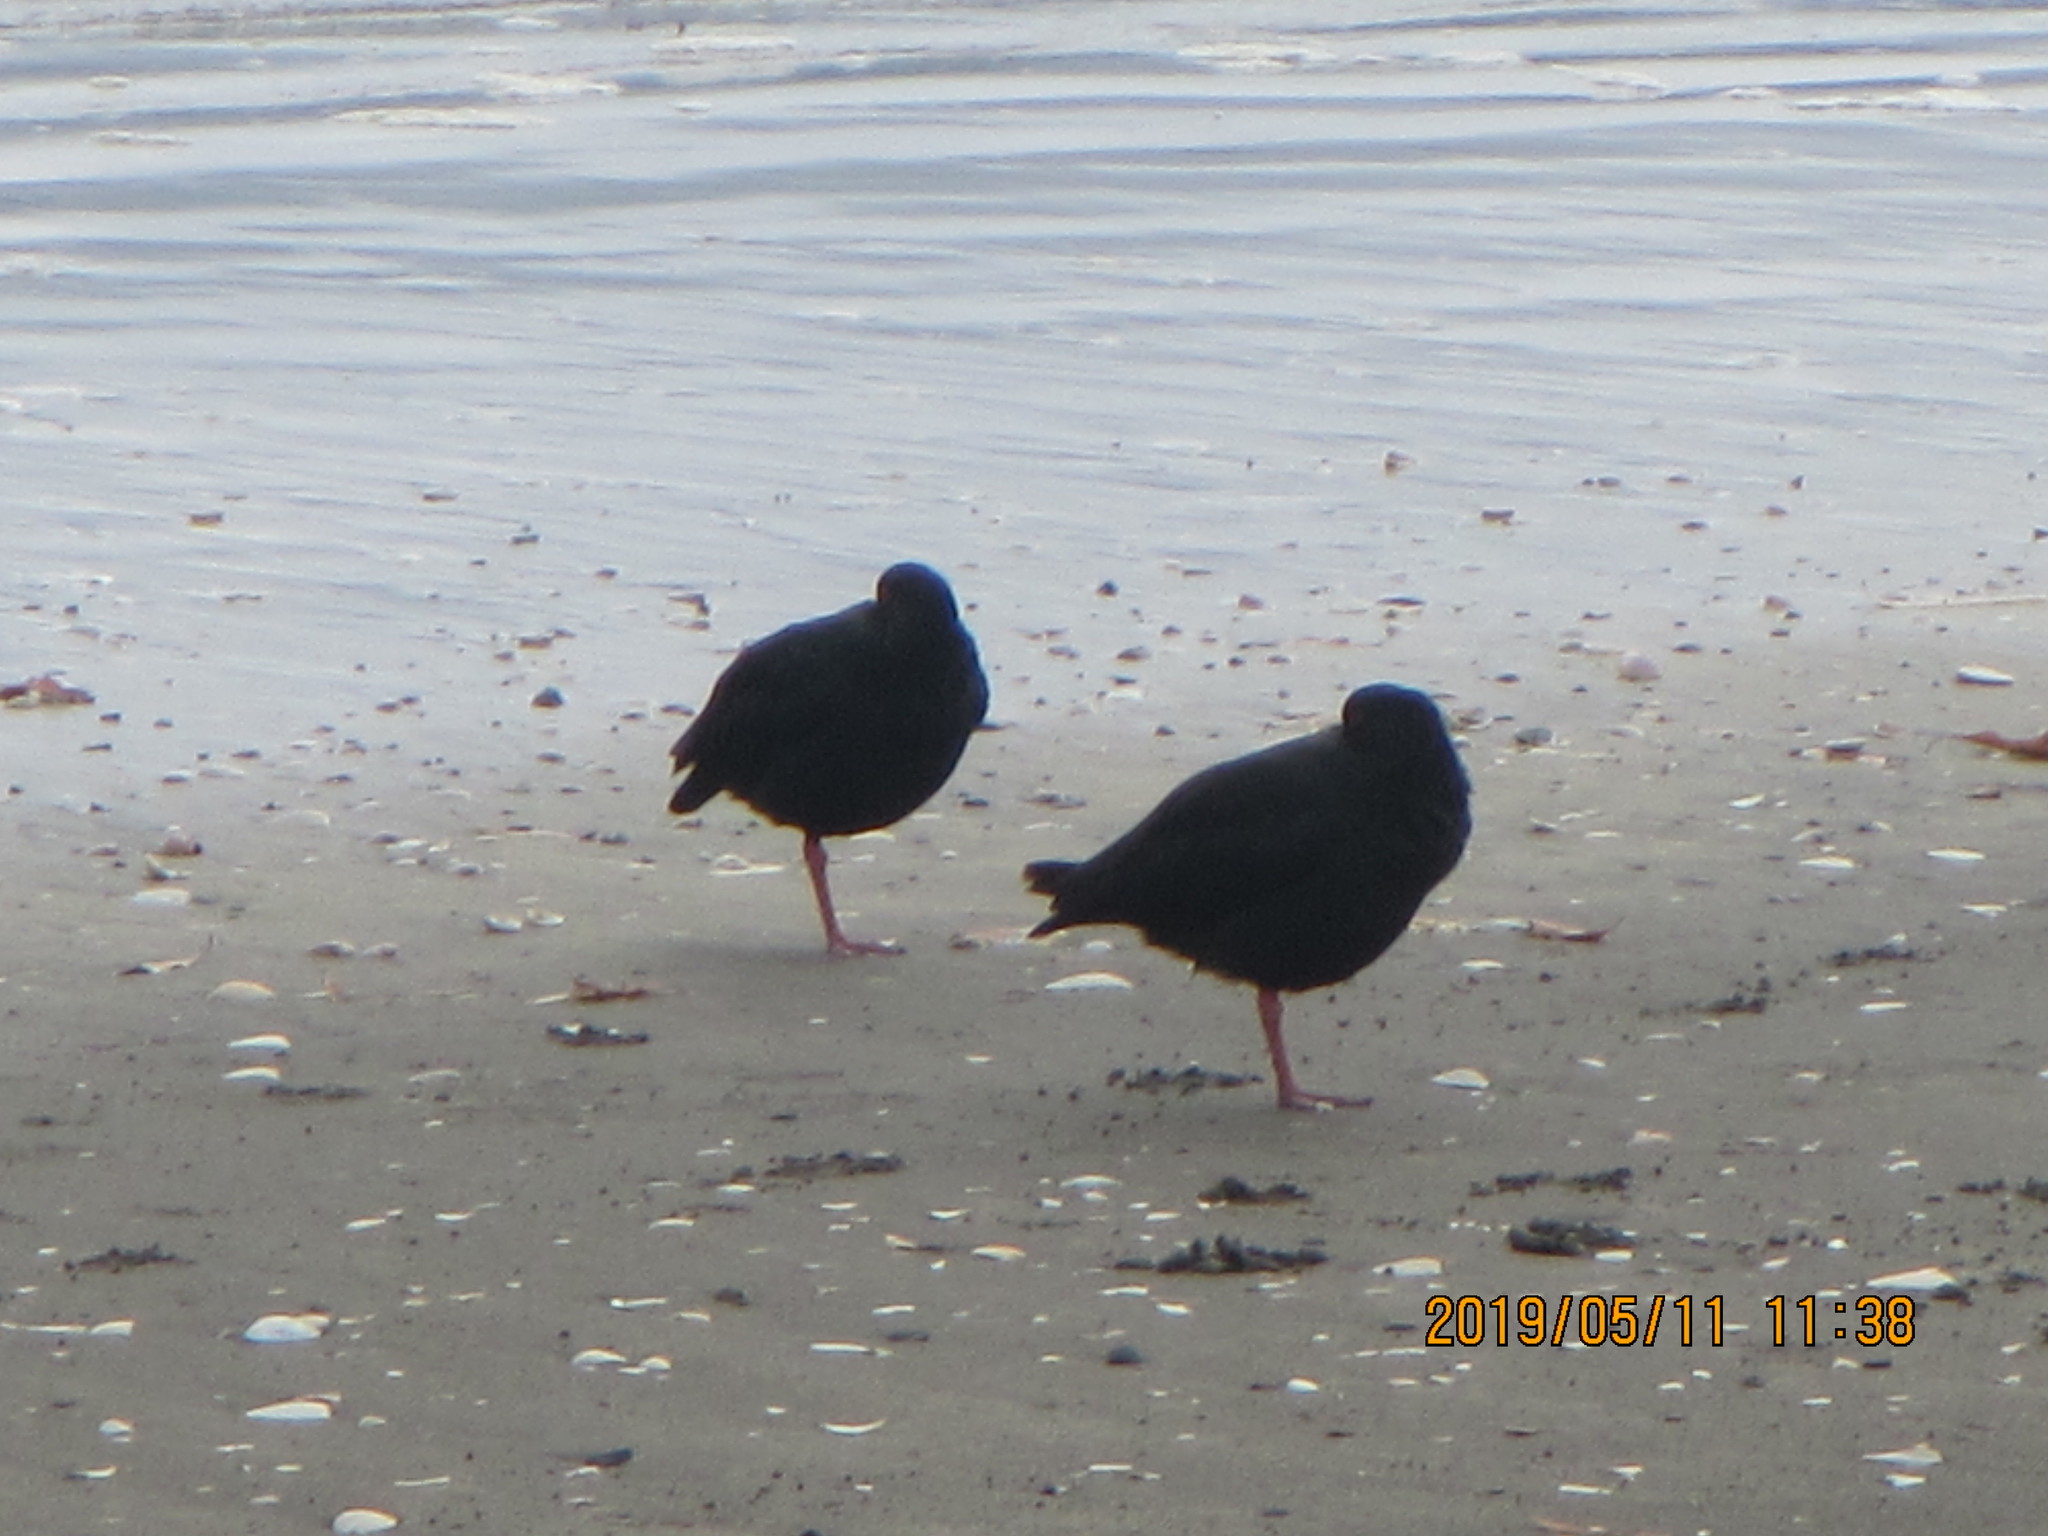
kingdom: Animalia
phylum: Chordata
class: Aves
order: Charadriiformes
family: Haematopodidae
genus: Haematopus
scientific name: Haematopus unicolor
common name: Variable oystercatcher
